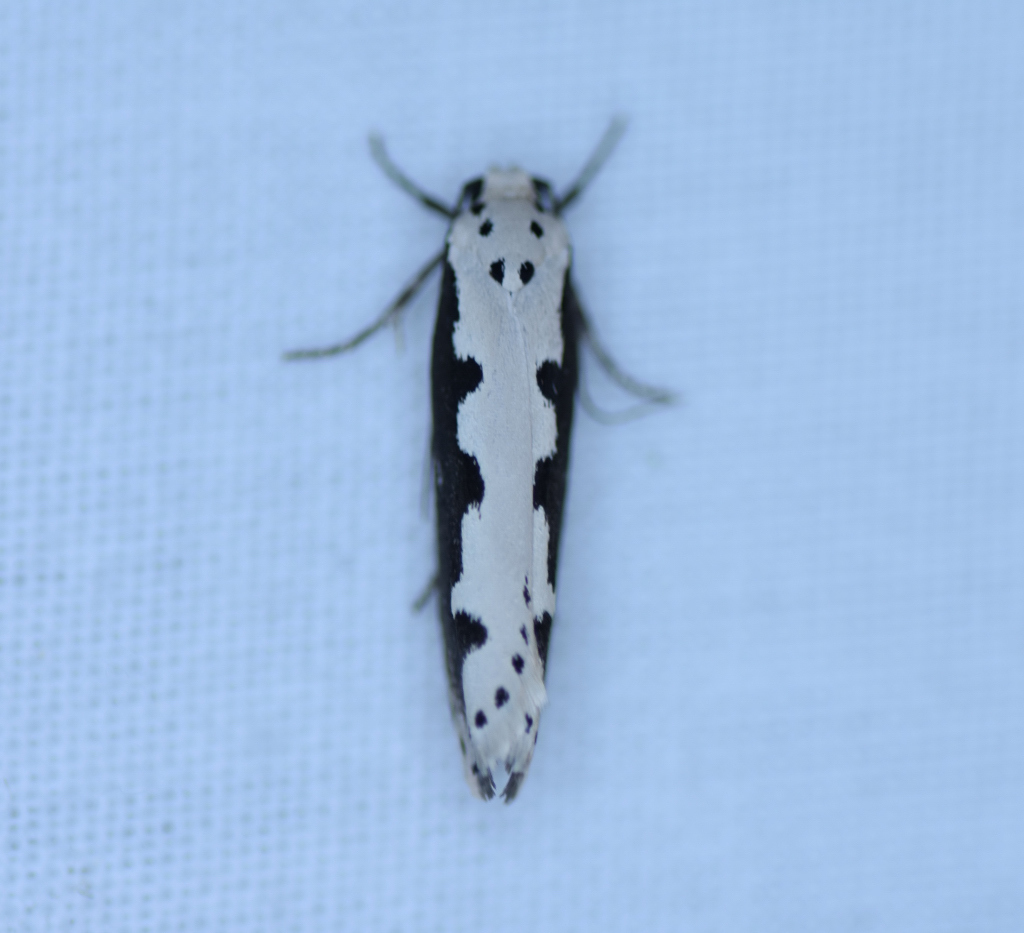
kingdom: Animalia
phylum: Arthropoda
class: Insecta
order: Lepidoptera
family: Ethmiidae
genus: Ethmia
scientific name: Ethmia bipunctella
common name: Bordered ermel
